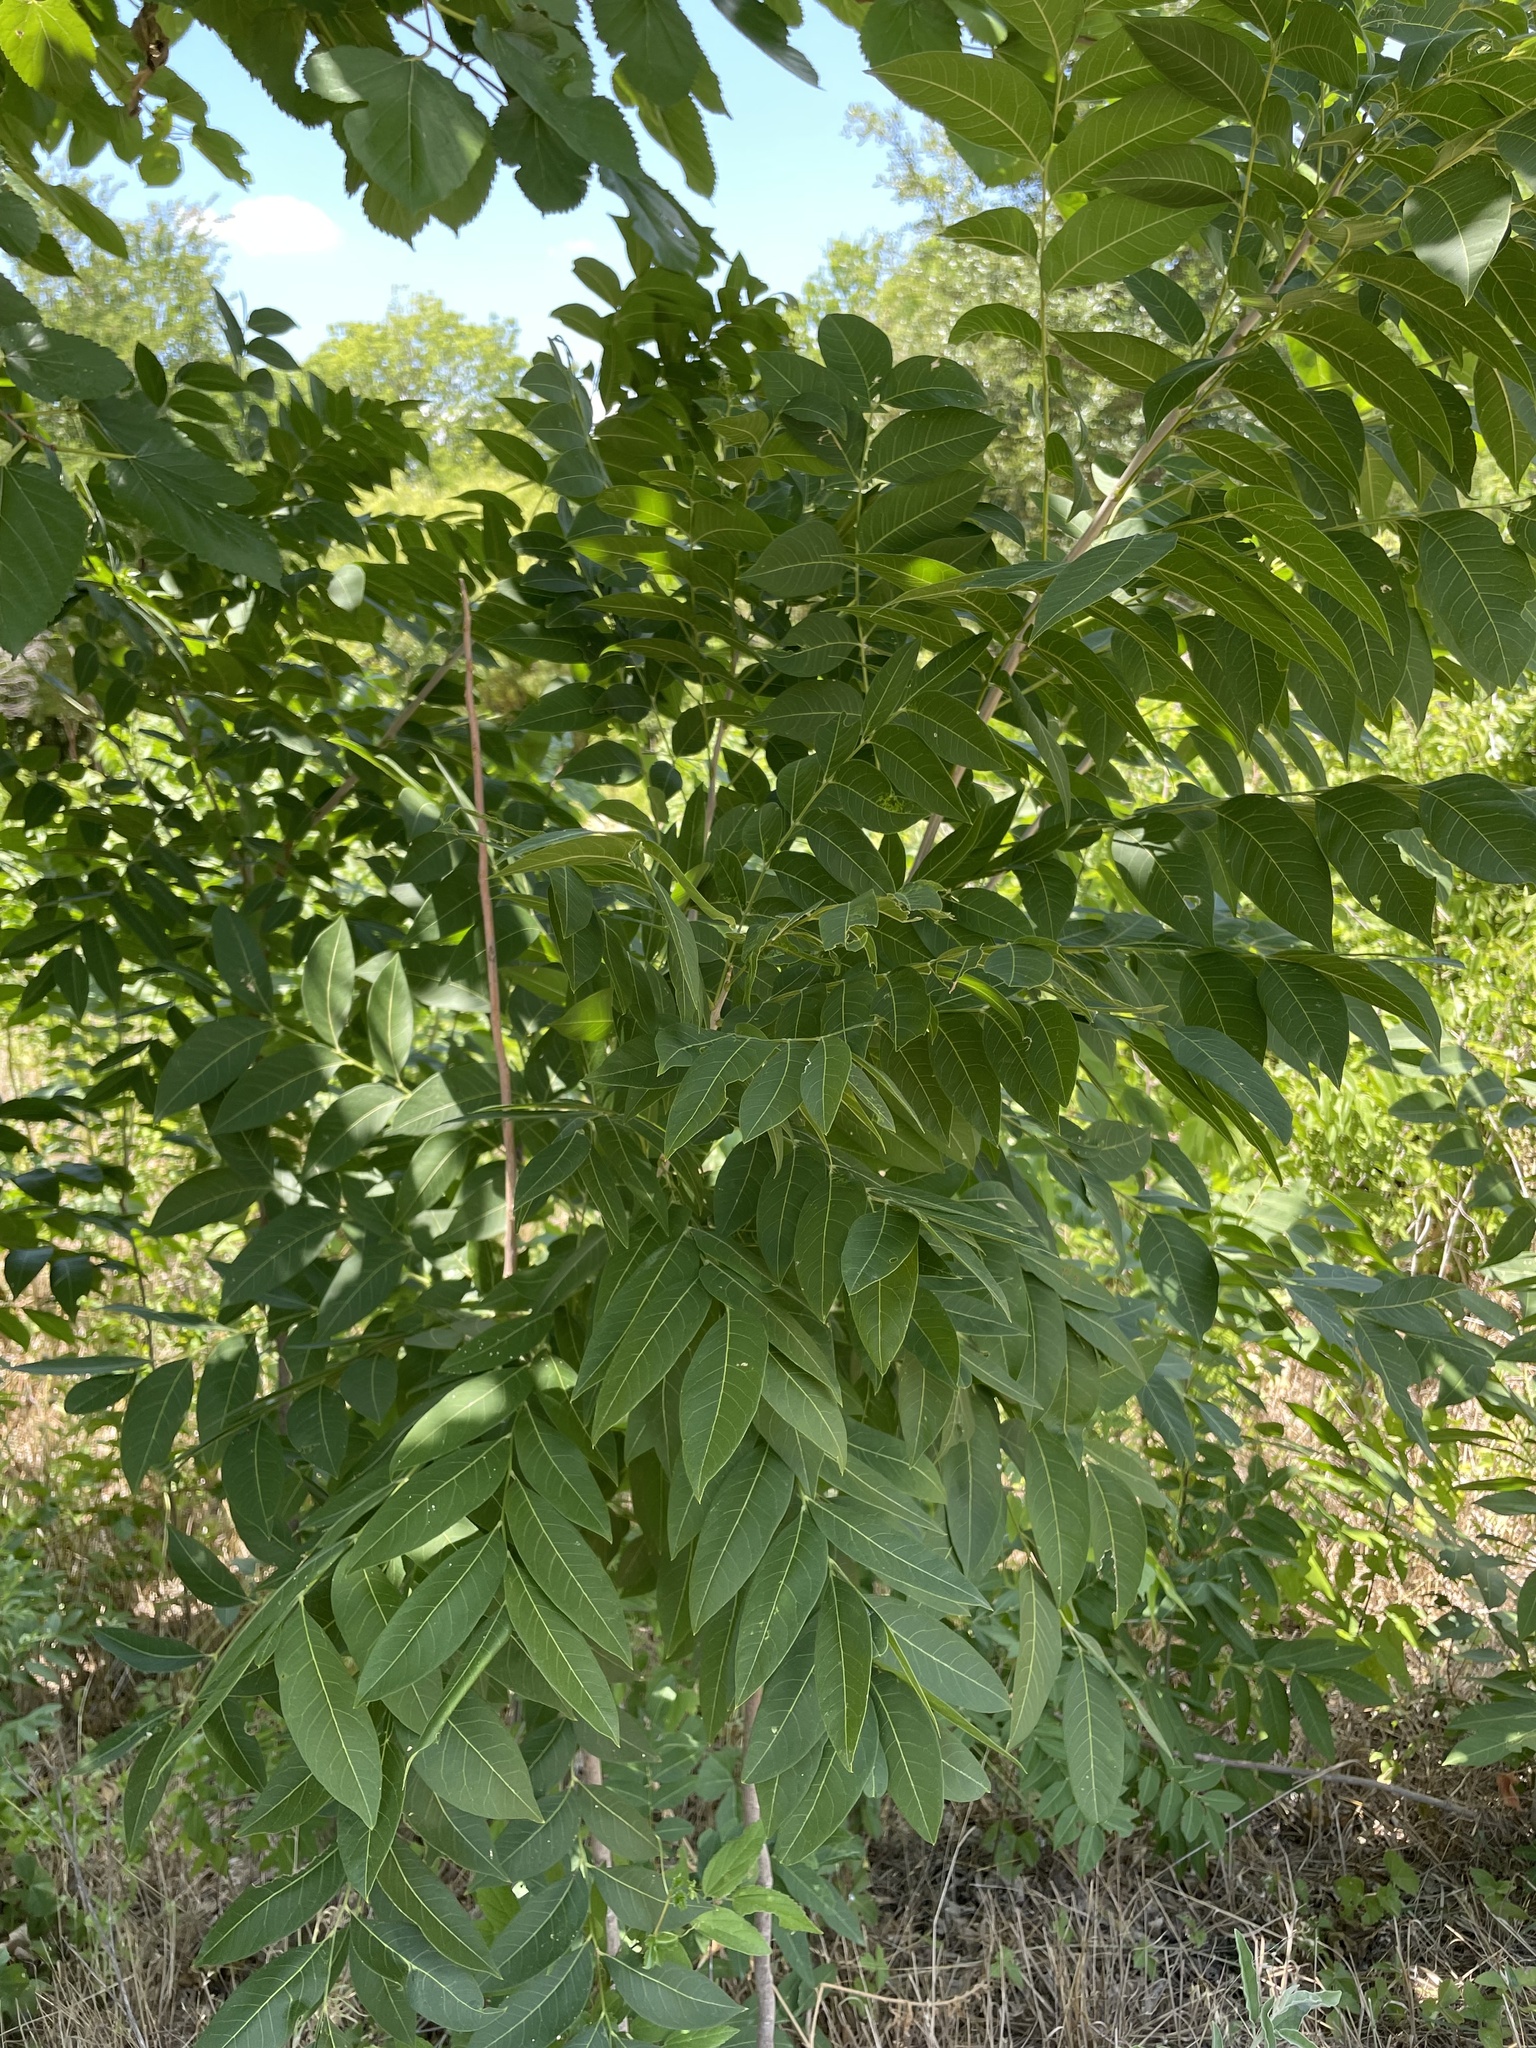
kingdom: Plantae
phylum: Tracheophyta
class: Magnoliopsida
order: Sapindales
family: Sapindaceae
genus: Sapindus
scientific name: Sapindus drummondii
